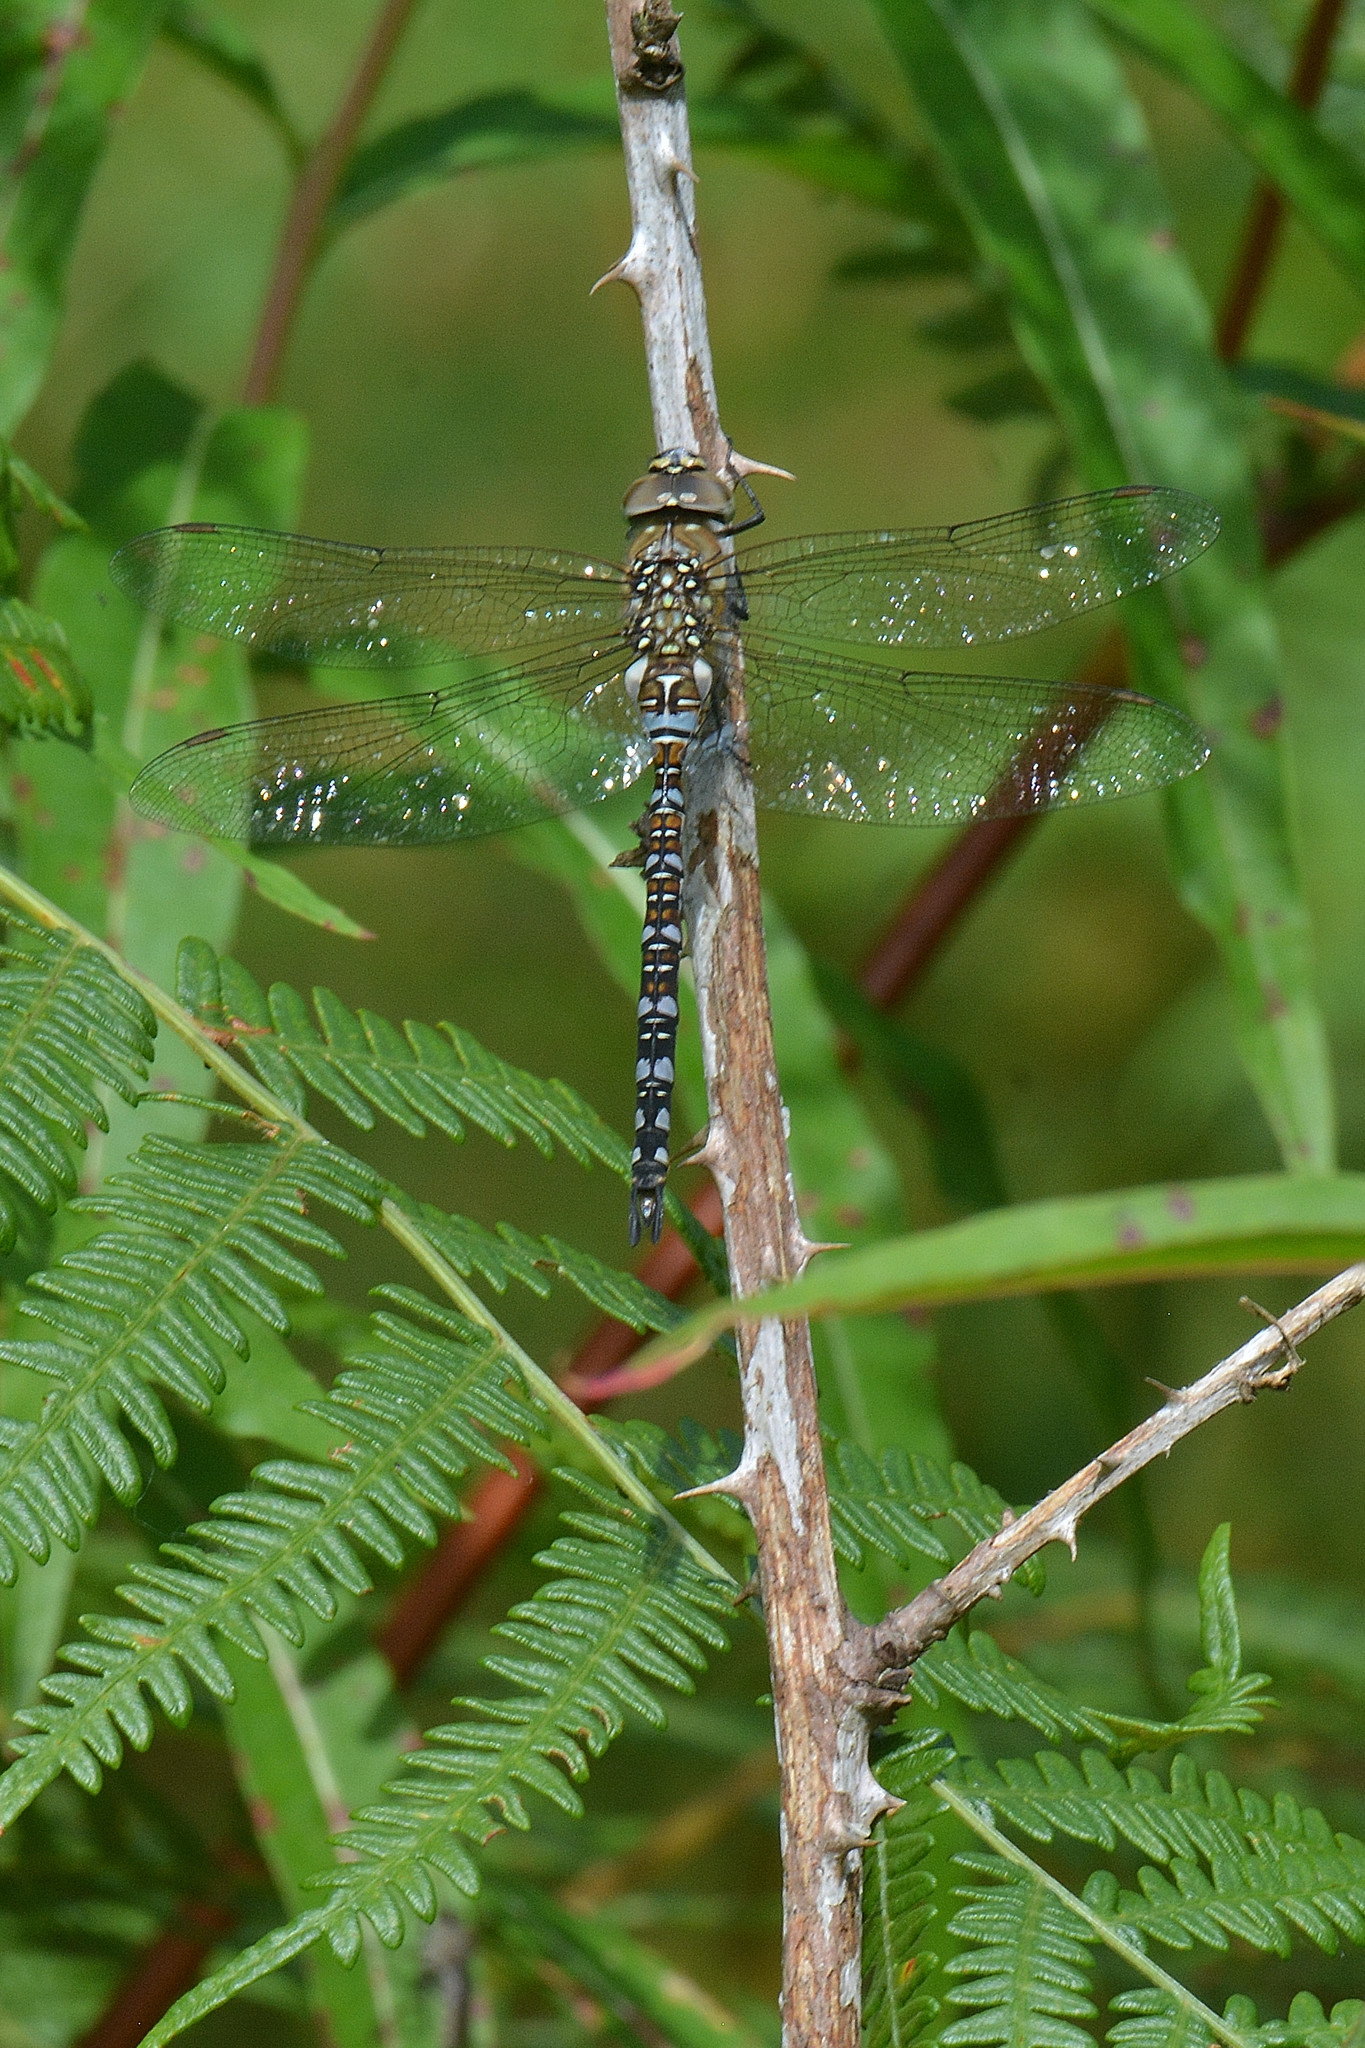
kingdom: Animalia
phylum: Arthropoda
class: Insecta
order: Odonata
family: Aeshnidae
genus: Aeshna
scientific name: Aeshna mixta
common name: Migrant hawker
